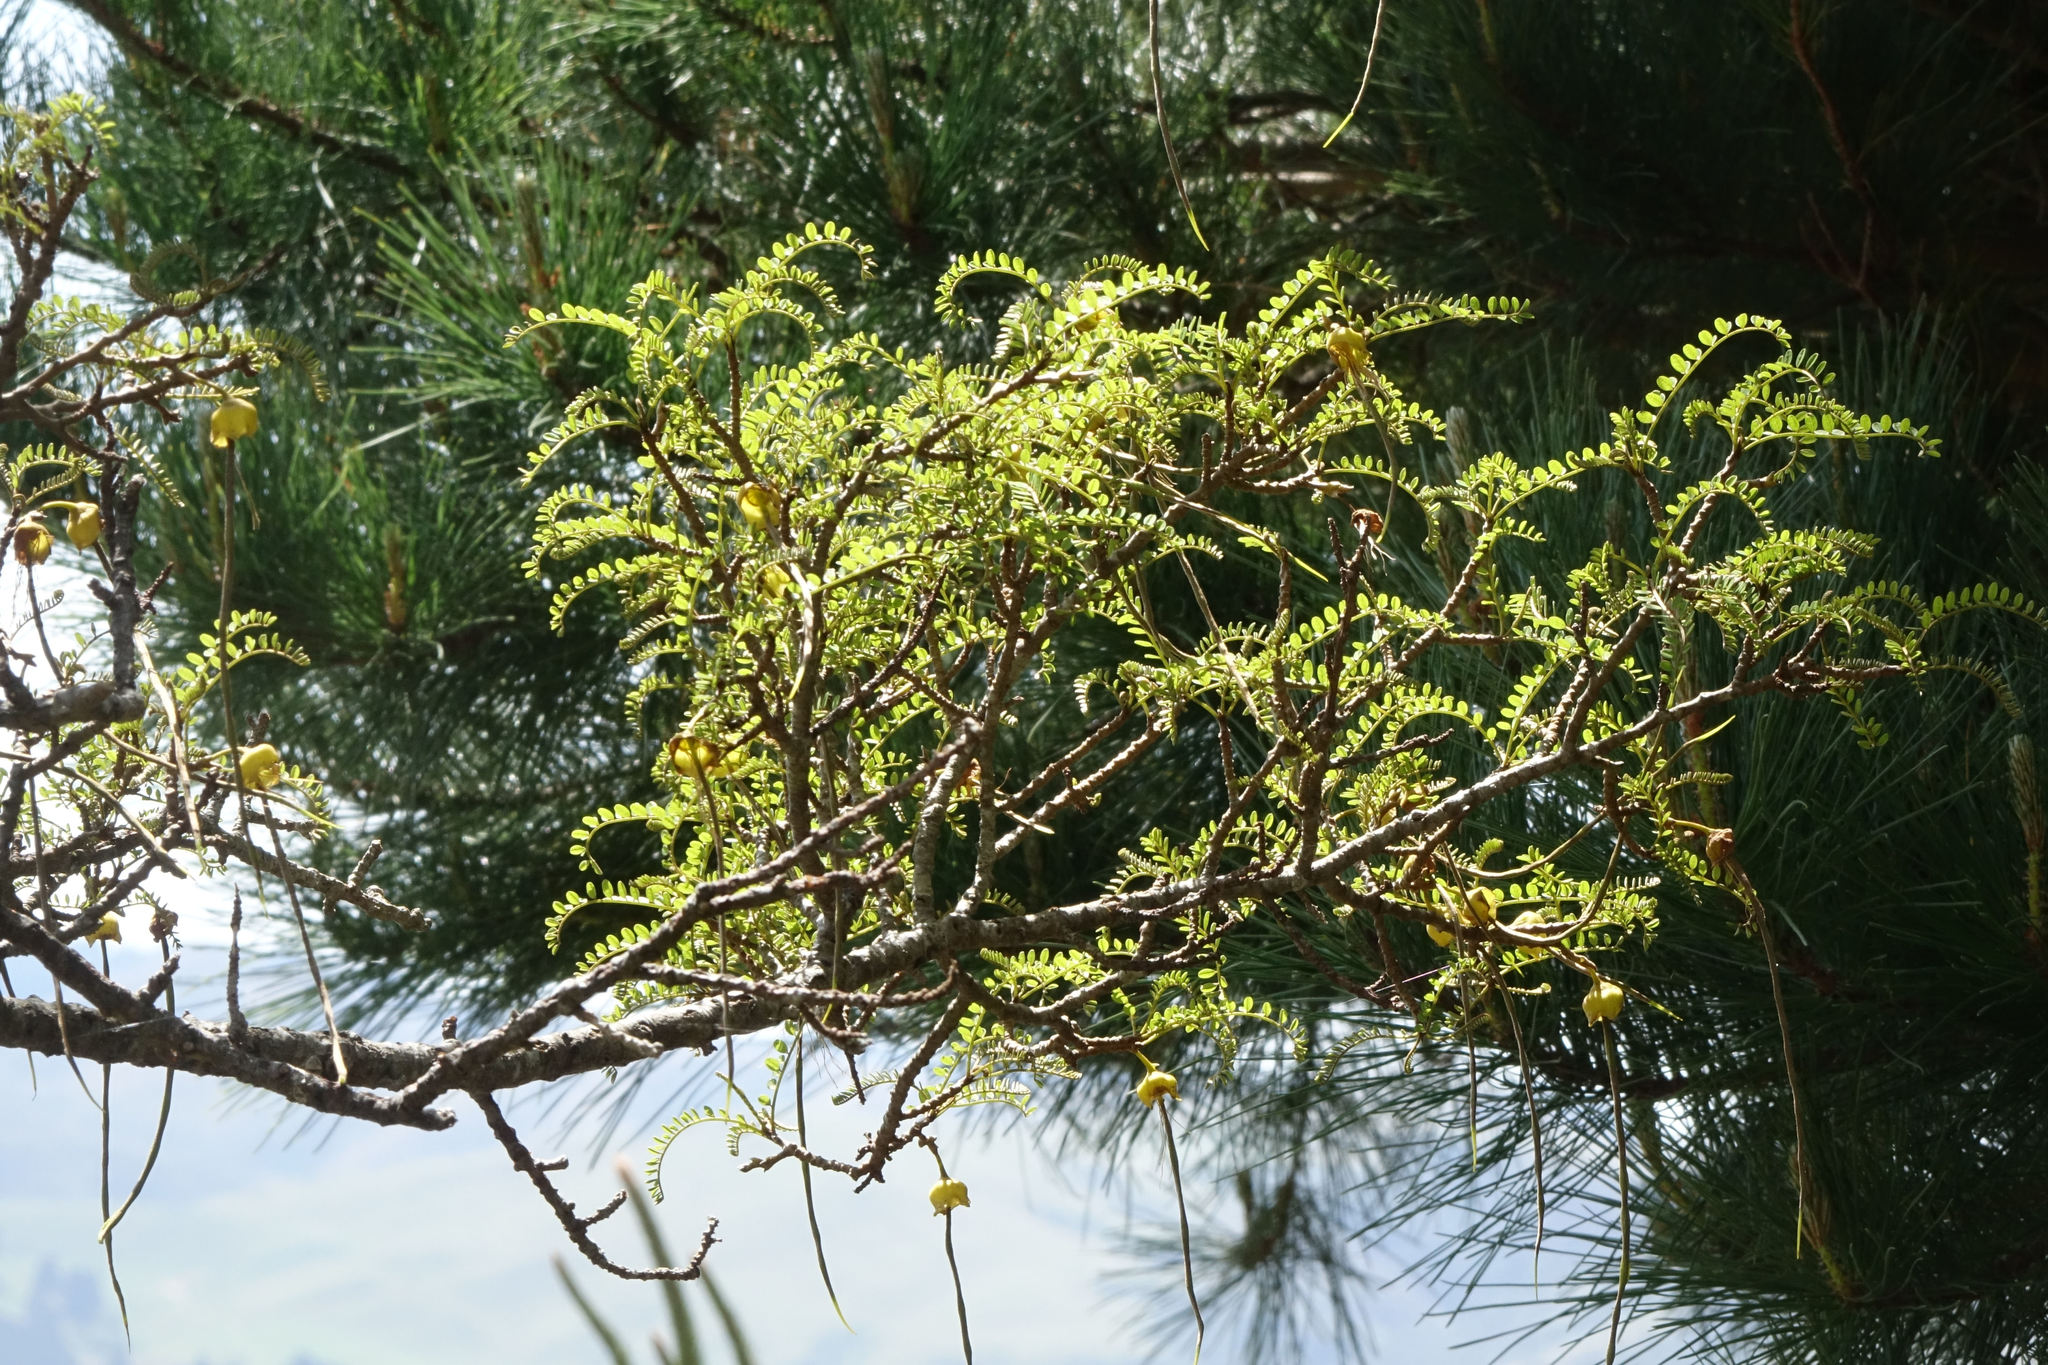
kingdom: Plantae
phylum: Tracheophyta
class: Magnoliopsida
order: Fabales
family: Fabaceae
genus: Sophora
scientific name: Sophora microphylla
